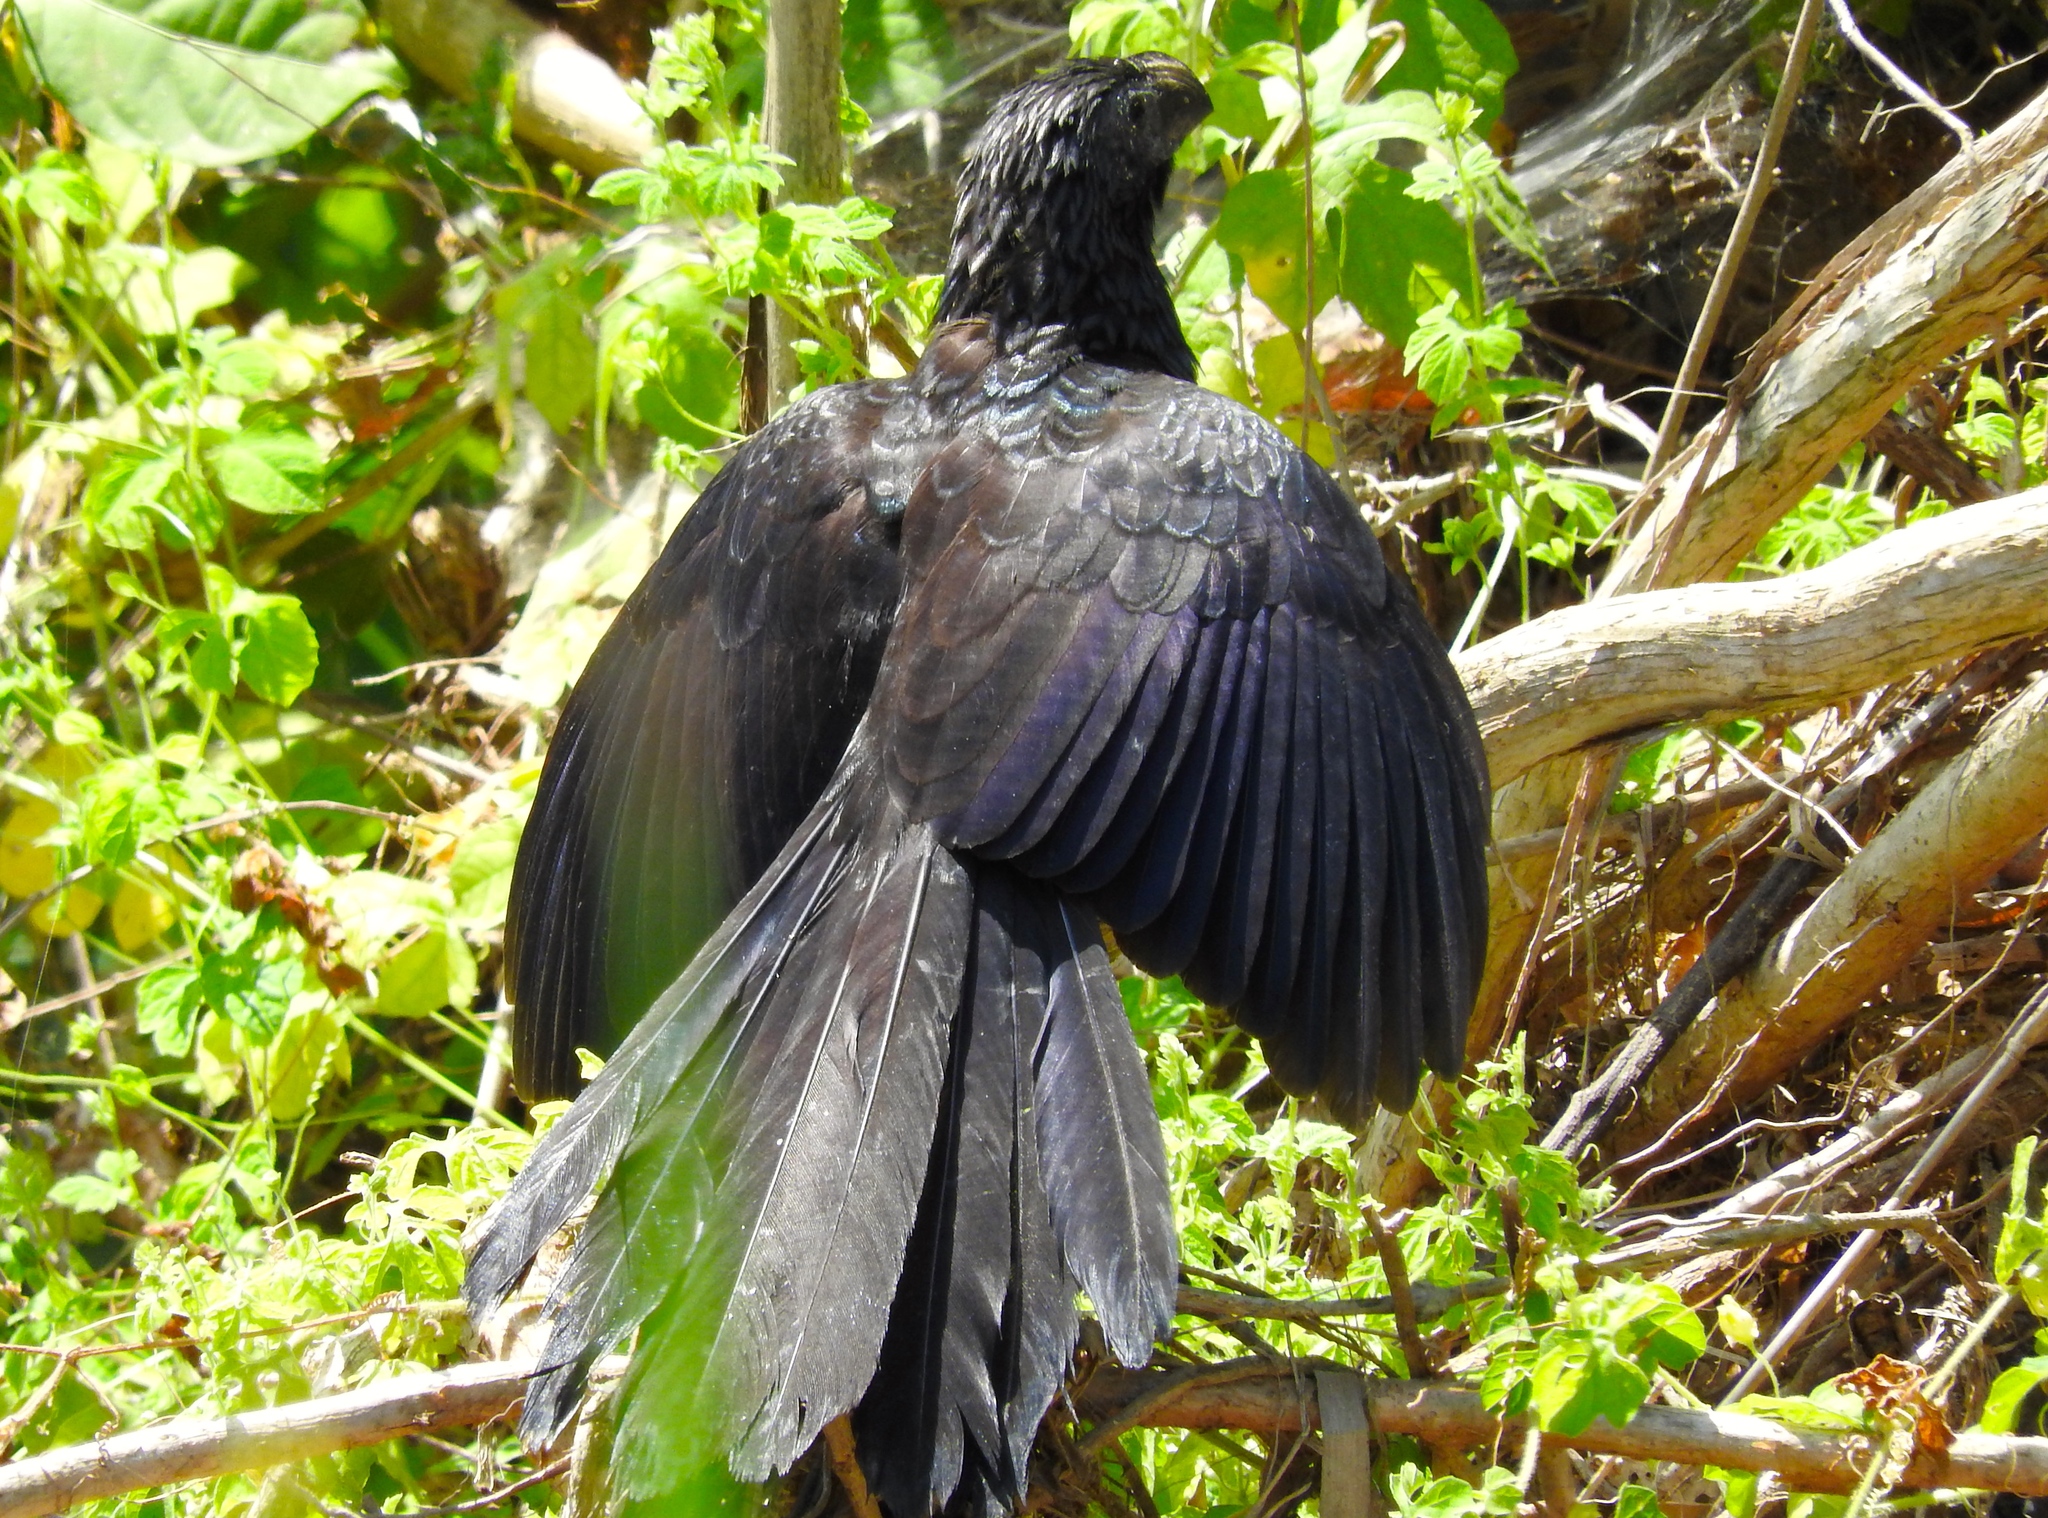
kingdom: Animalia
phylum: Chordata
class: Aves
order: Cuculiformes
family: Cuculidae
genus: Crotophaga
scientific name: Crotophaga sulcirostris
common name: Groove-billed ani
